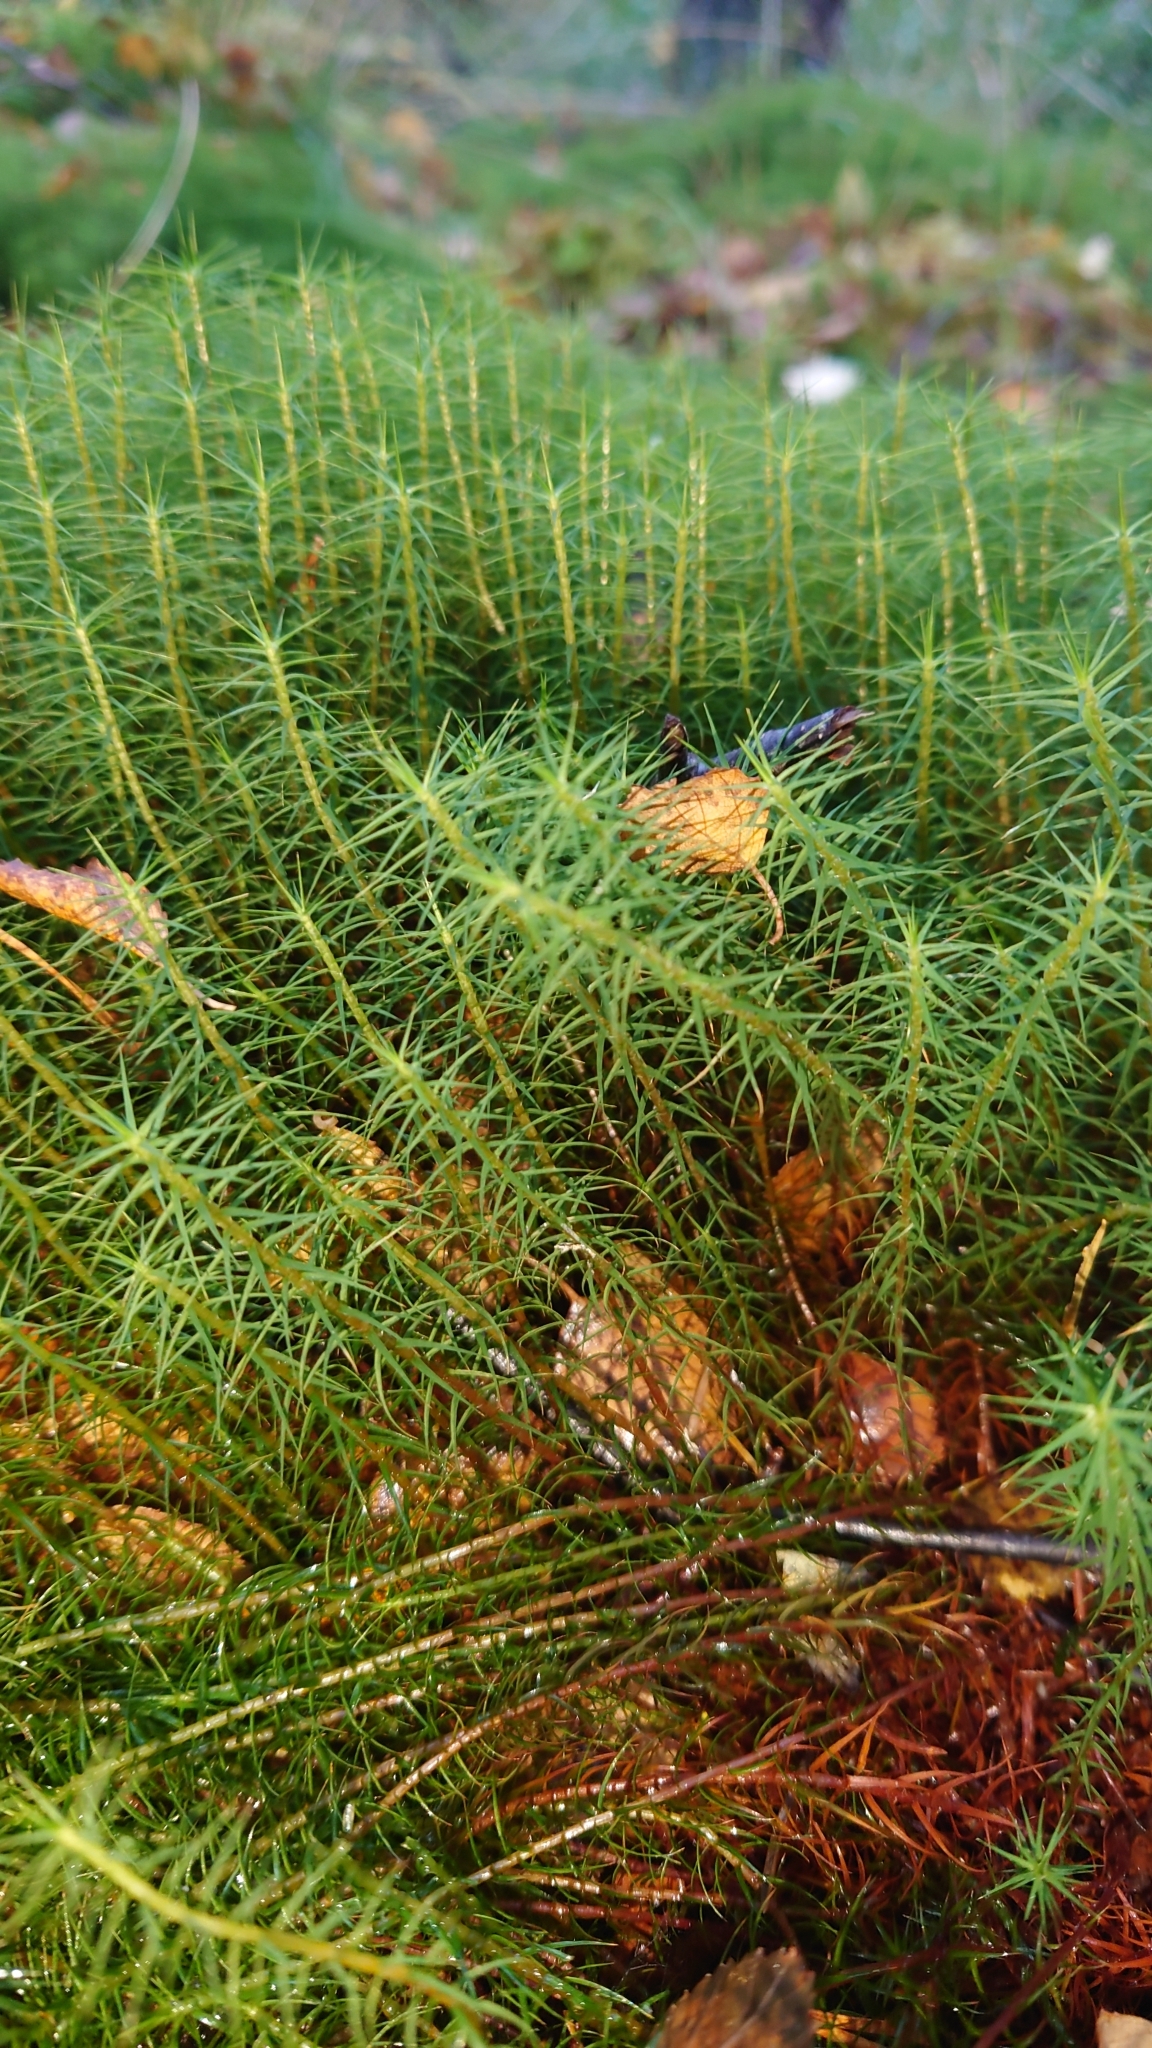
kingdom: Plantae
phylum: Bryophyta
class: Polytrichopsida
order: Polytrichales
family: Polytrichaceae
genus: Polytrichum
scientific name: Polytrichum commune
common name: Common haircap
